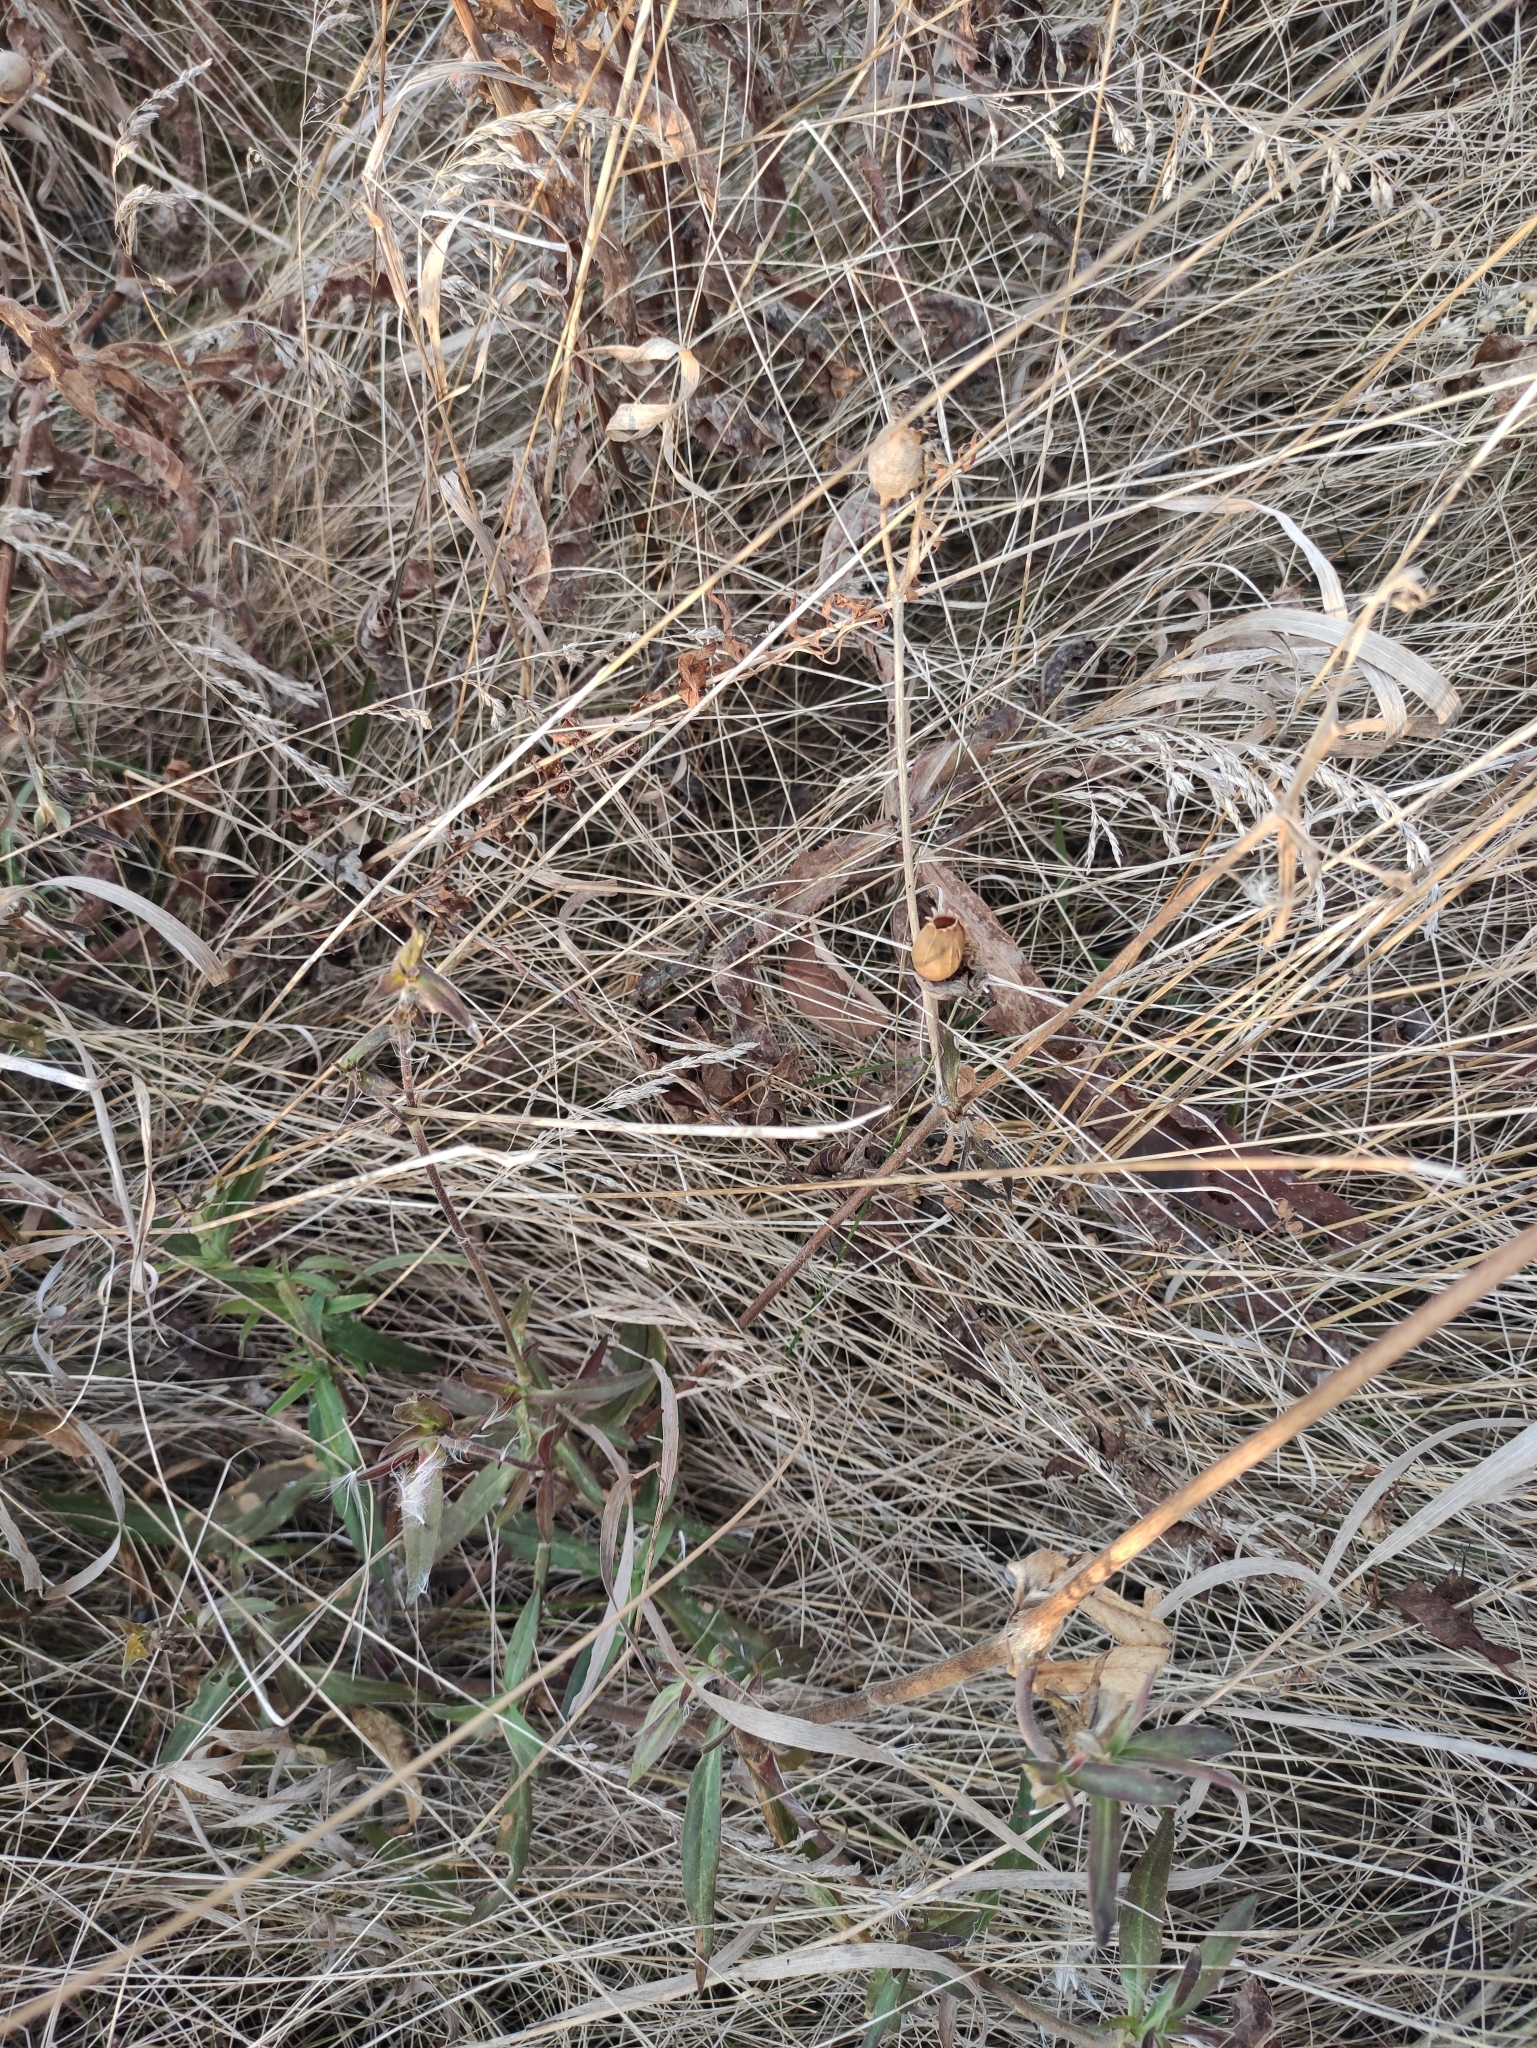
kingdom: Plantae
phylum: Tracheophyta
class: Magnoliopsida
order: Caryophyllales
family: Caryophyllaceae
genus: Silene
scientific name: Silene latifolia
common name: White campion
